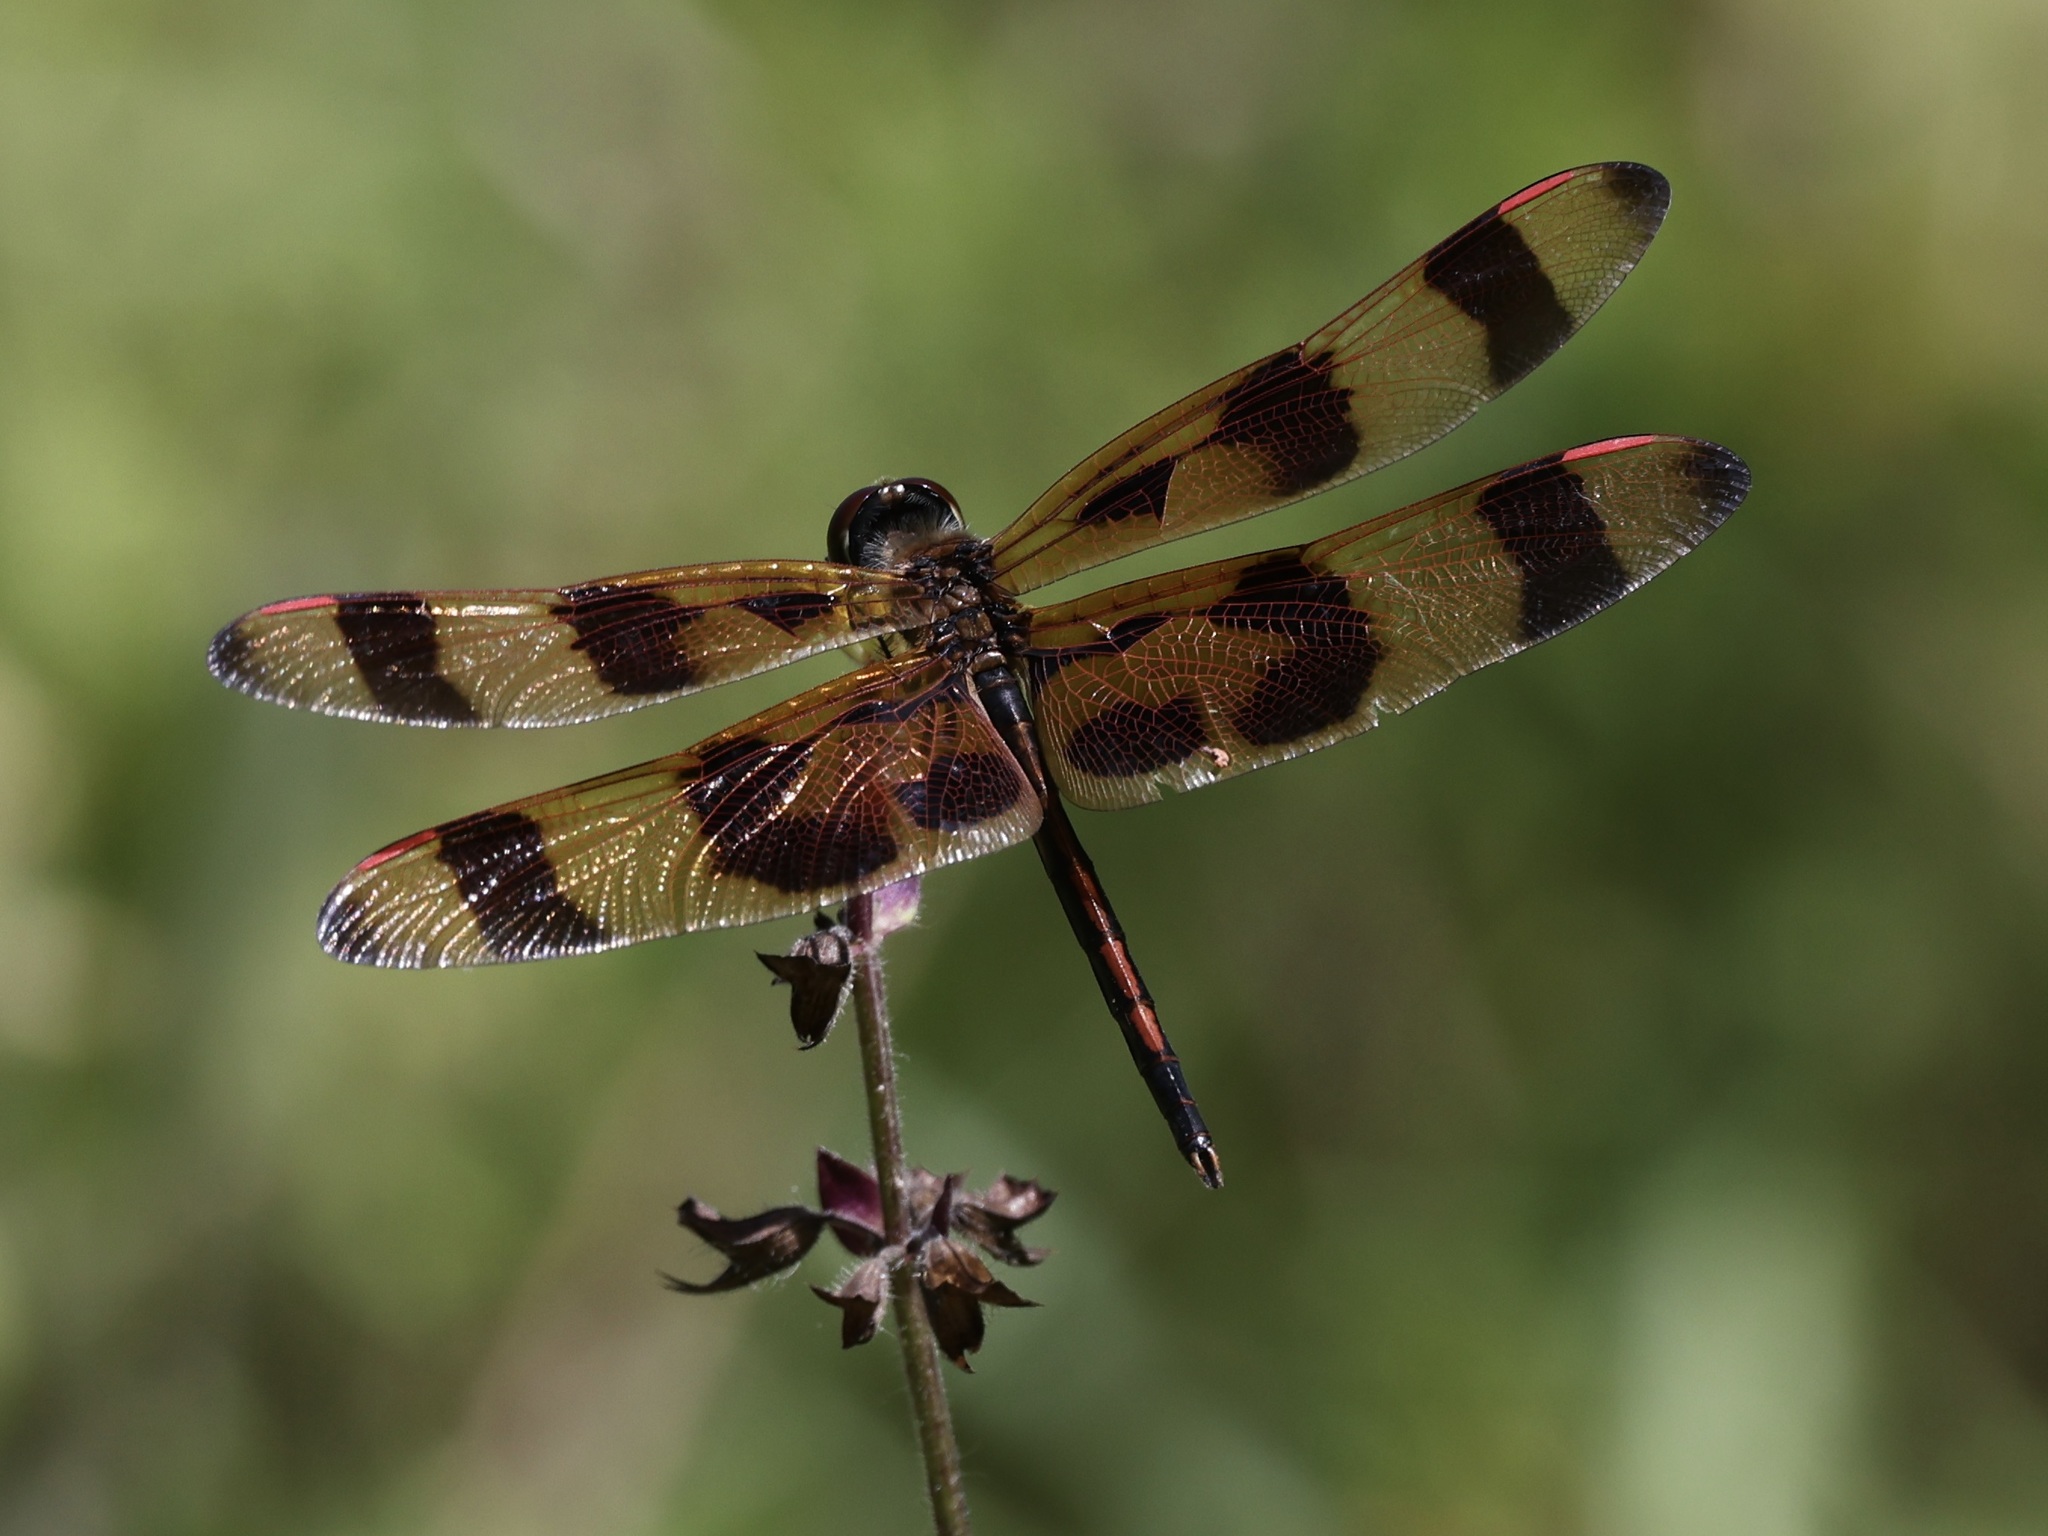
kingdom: Animalia
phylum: Arthropoda
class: Insecta
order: Odonata
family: Libellulidae
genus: Celithemis
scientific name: Celithemis eponina
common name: Halloween pennant
